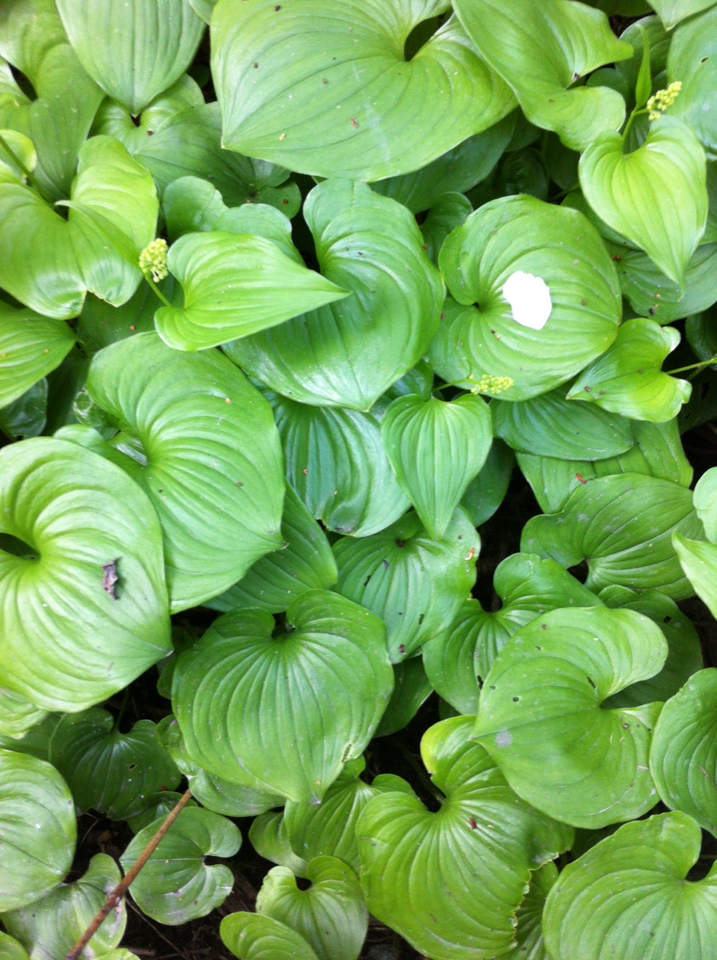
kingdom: Plantae
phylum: Tracheophyta
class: Liliopsida
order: Asparagales
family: Asparagaceae
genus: Maianthemum
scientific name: Maianthemum dilatatum
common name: False lily-of-the-valley
